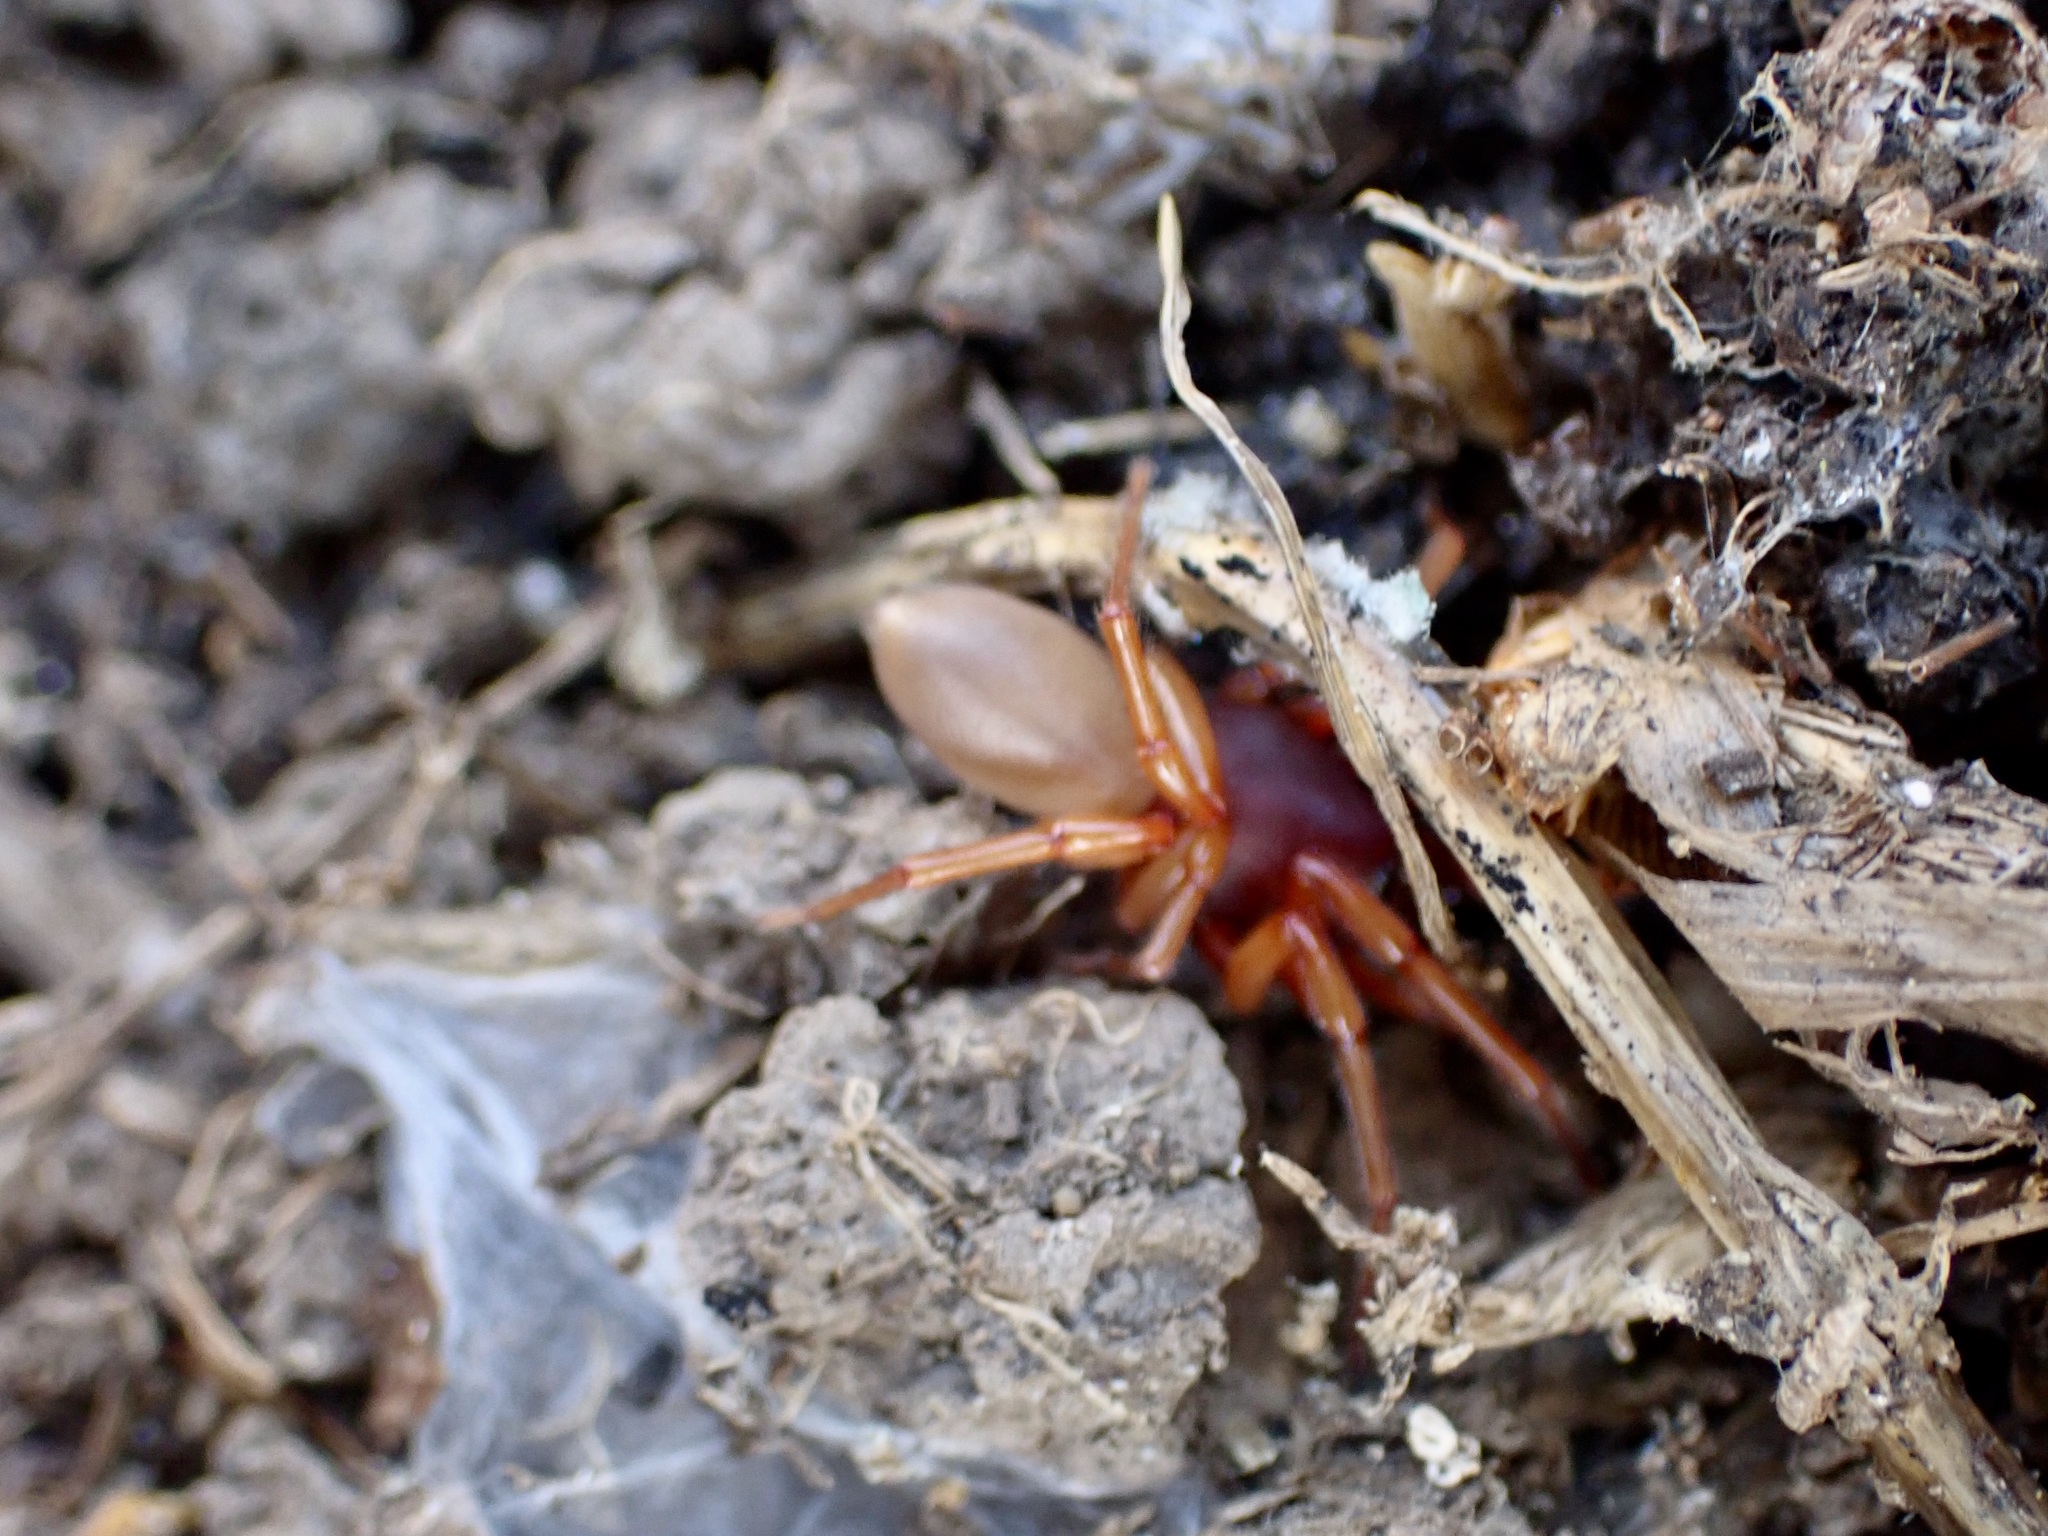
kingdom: Animalia
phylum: Arthropoda
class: Arachnida
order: Araneae
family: Dysderidae
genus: Dysdera
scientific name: Dysdera crocata
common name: Woodlouse spider
